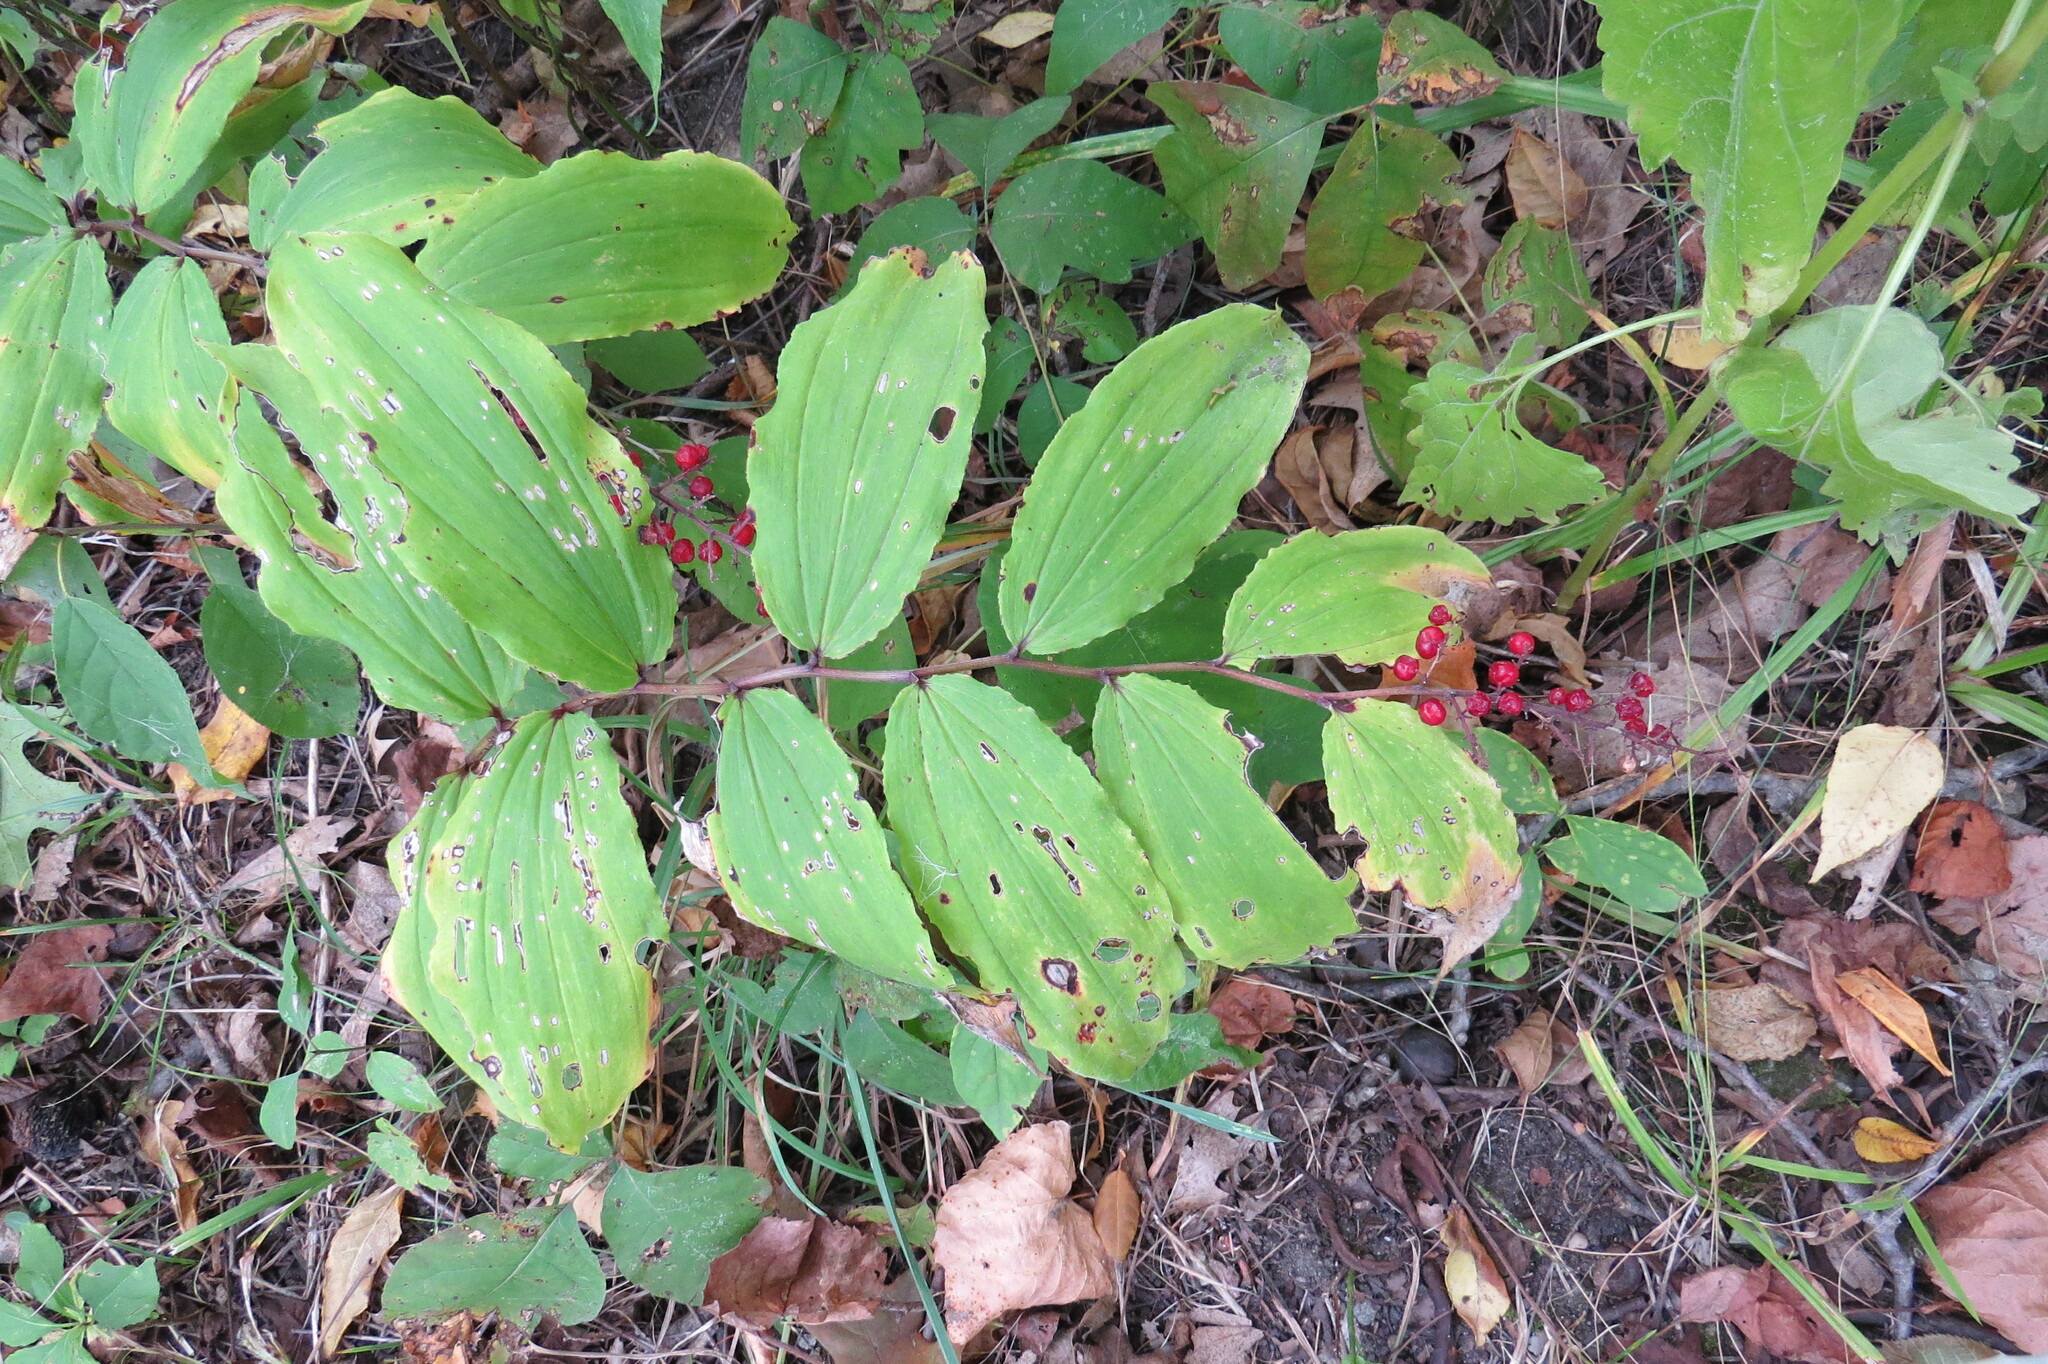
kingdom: Plantae
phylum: Tracheophyta
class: Liliopsida
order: Asparagales
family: Asparagaceae
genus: Maianthemum
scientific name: Maianthemum racemosum
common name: False spikenard
